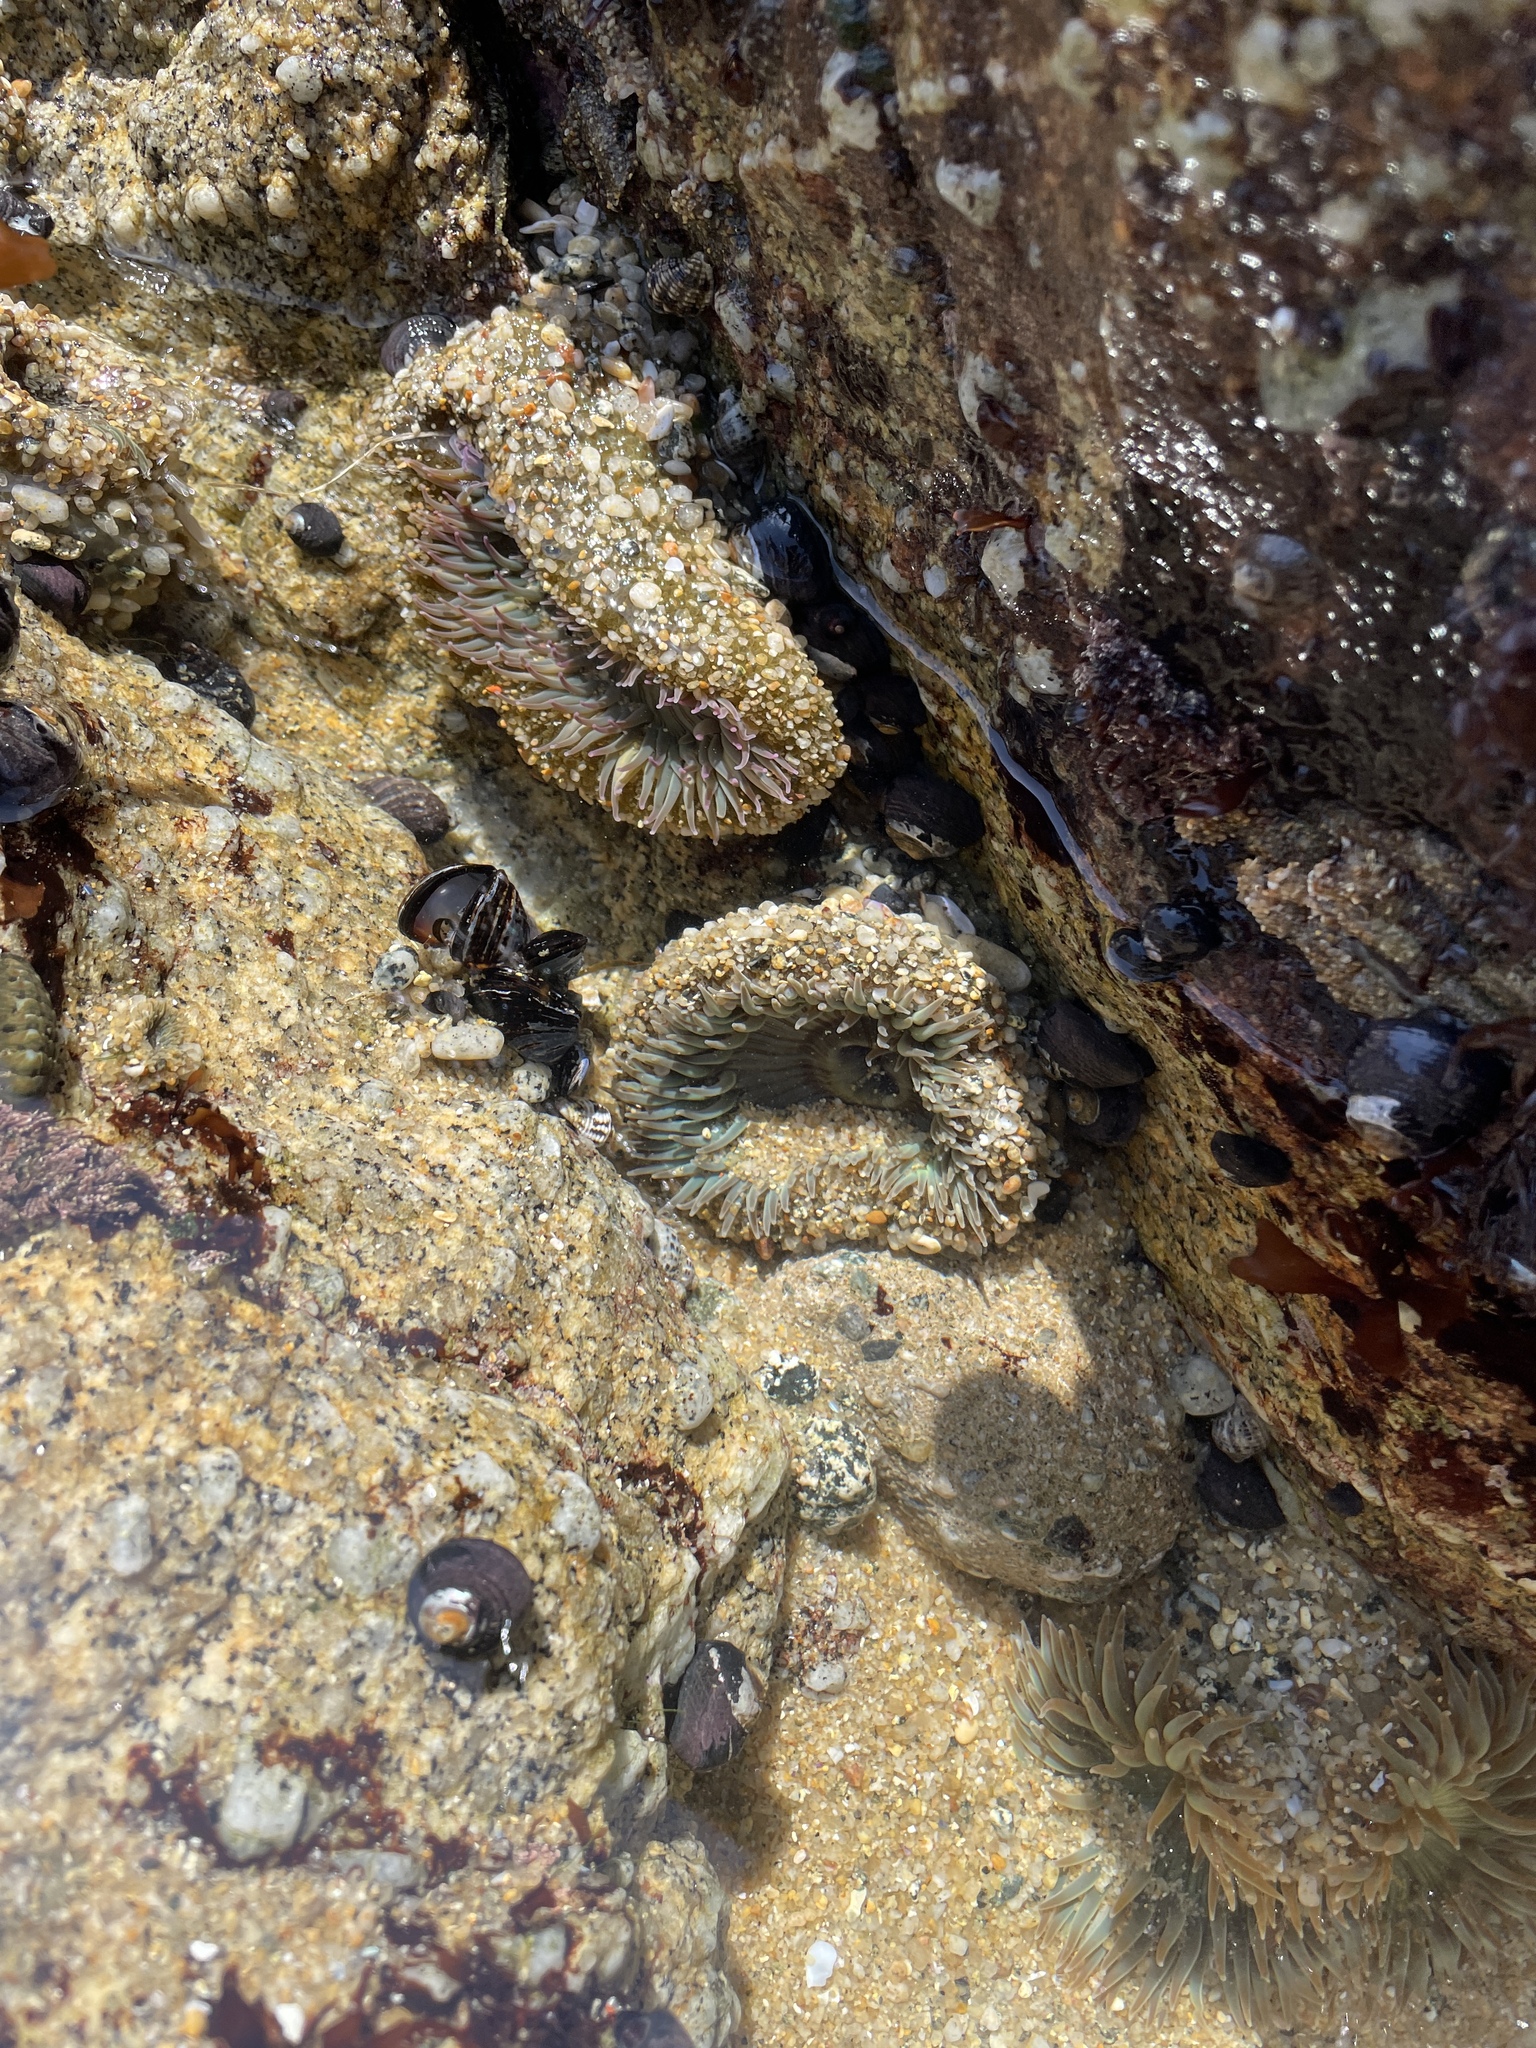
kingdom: Animalia
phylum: Cnidaria
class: Anthozoa
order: Actiniaria
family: Actiniidae
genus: Anthopleura
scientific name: Anthopleura sola
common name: Sun anemone
